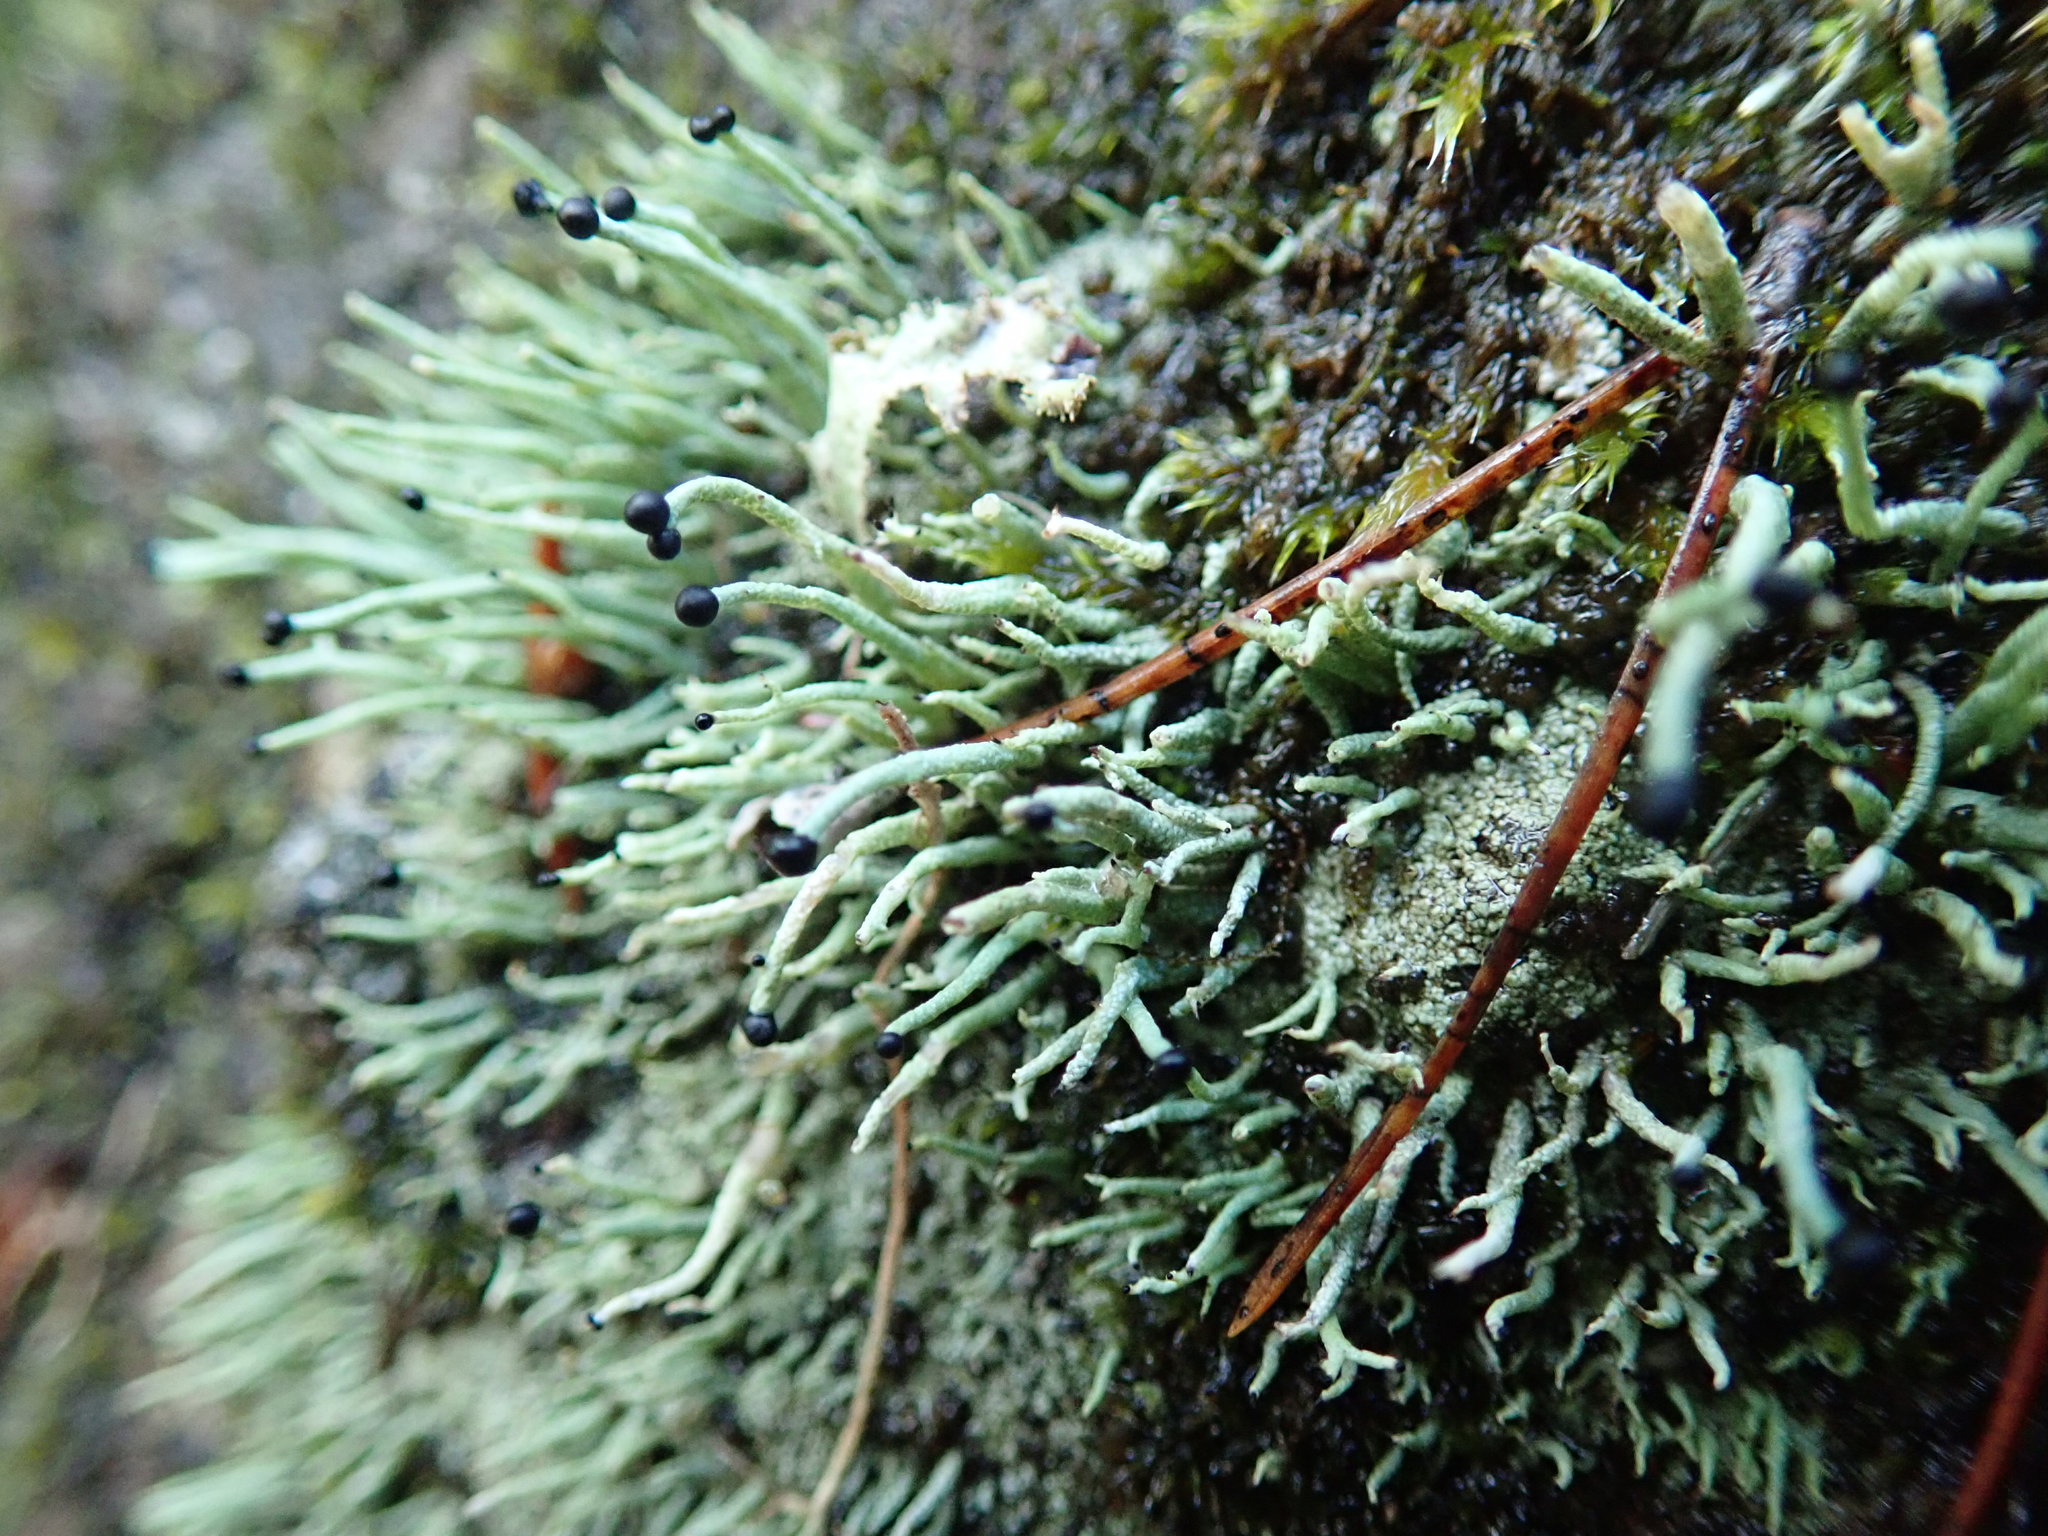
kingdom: Fungi
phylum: Ascomycota
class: Lecanoromycetes
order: Lecanorales
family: Cladoniaceae
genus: Pilophorus
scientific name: Pilophorus acicularis
